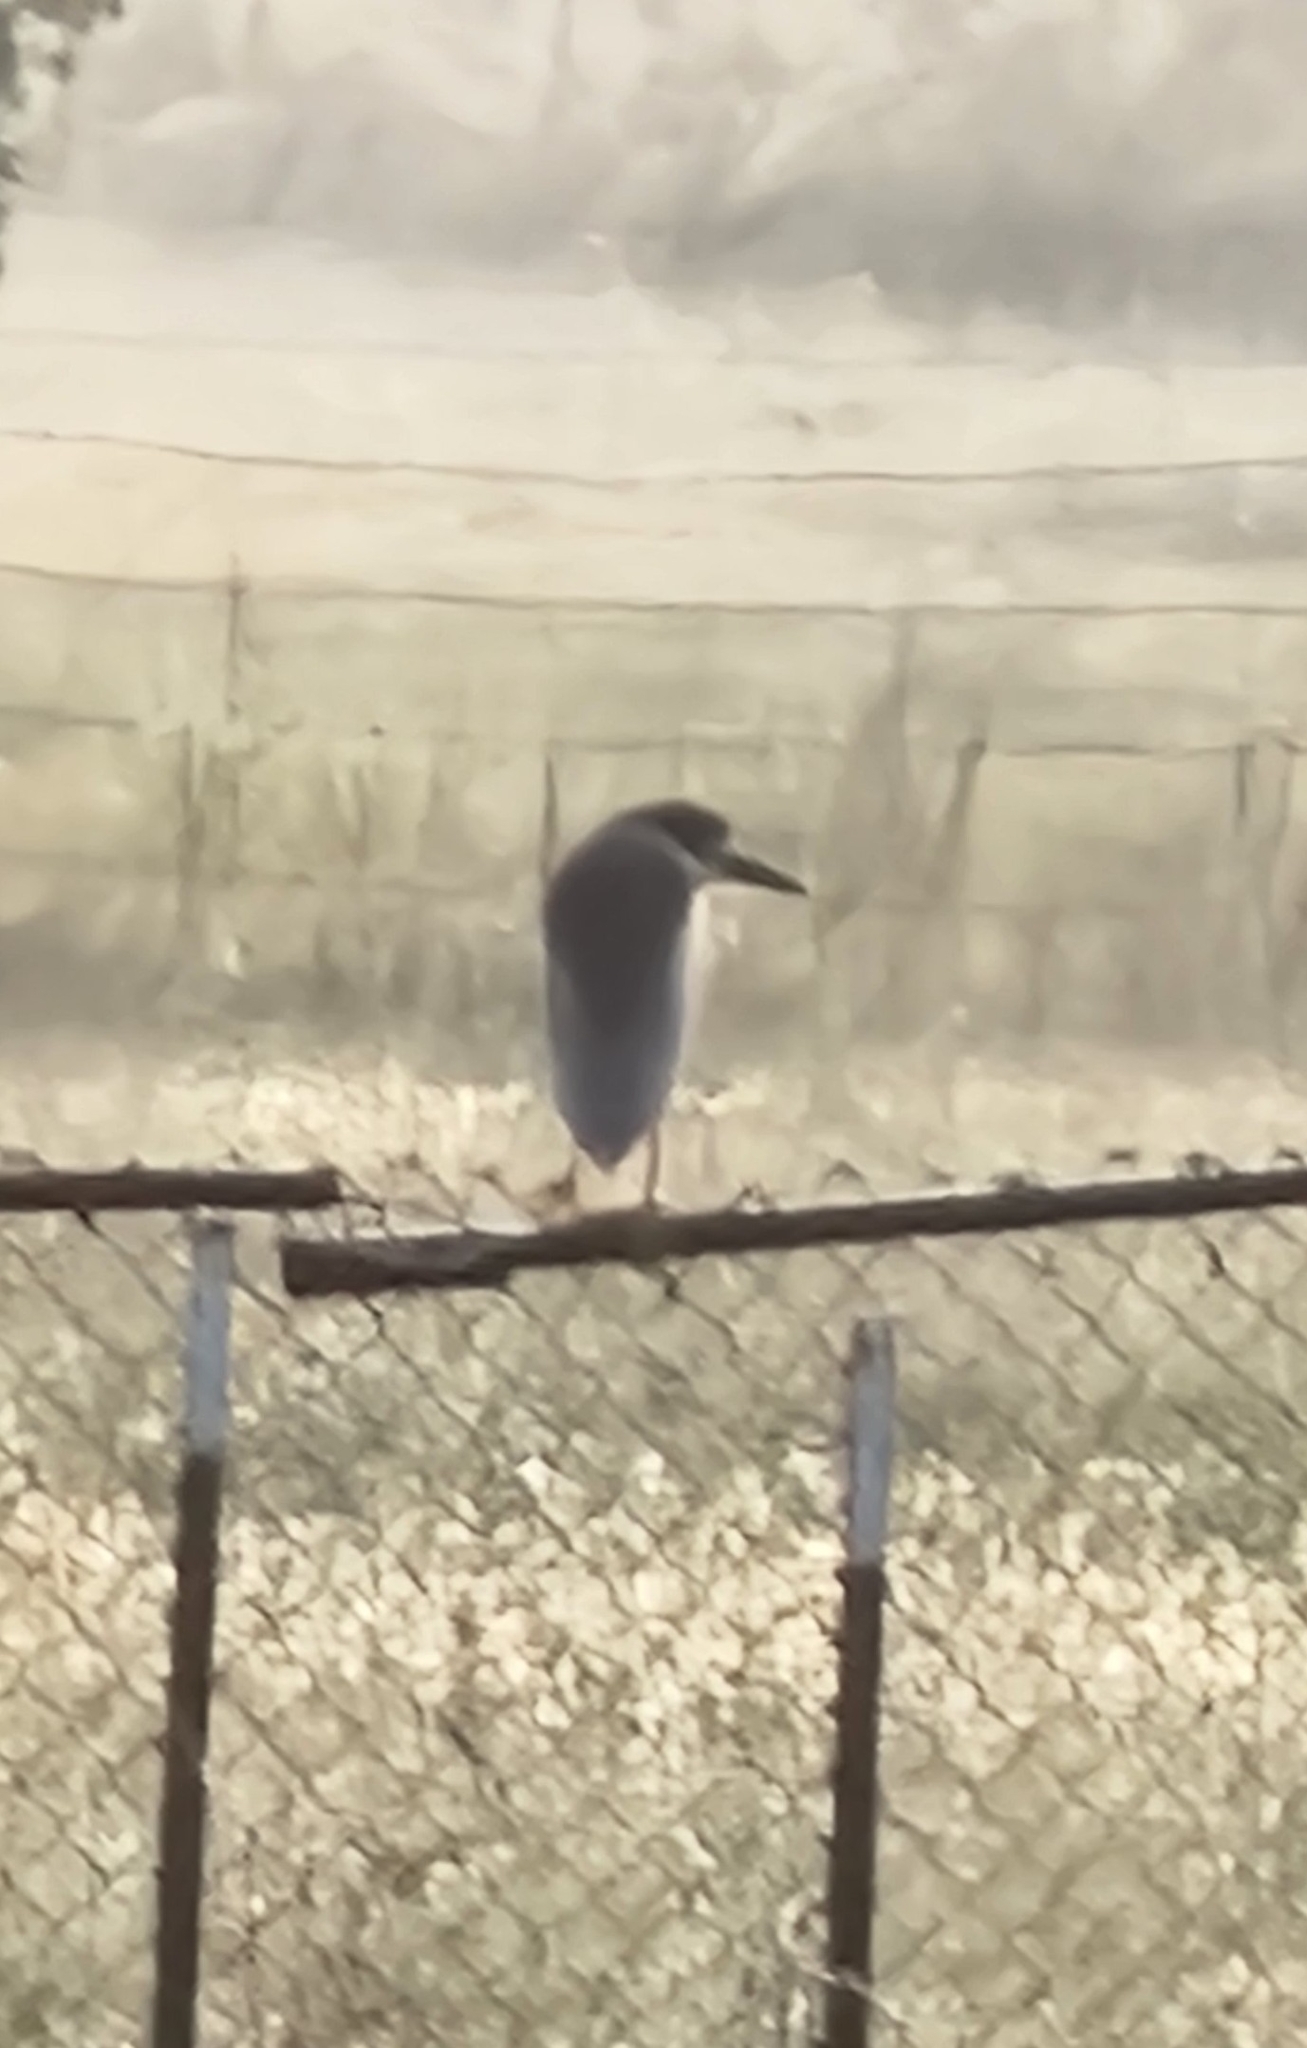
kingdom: Animalia
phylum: Chordata
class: Aves
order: Pelecaniformes
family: Ardeidae
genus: Nycticorax
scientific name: Nycticorax nycticorax
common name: Black-crowned night heron
